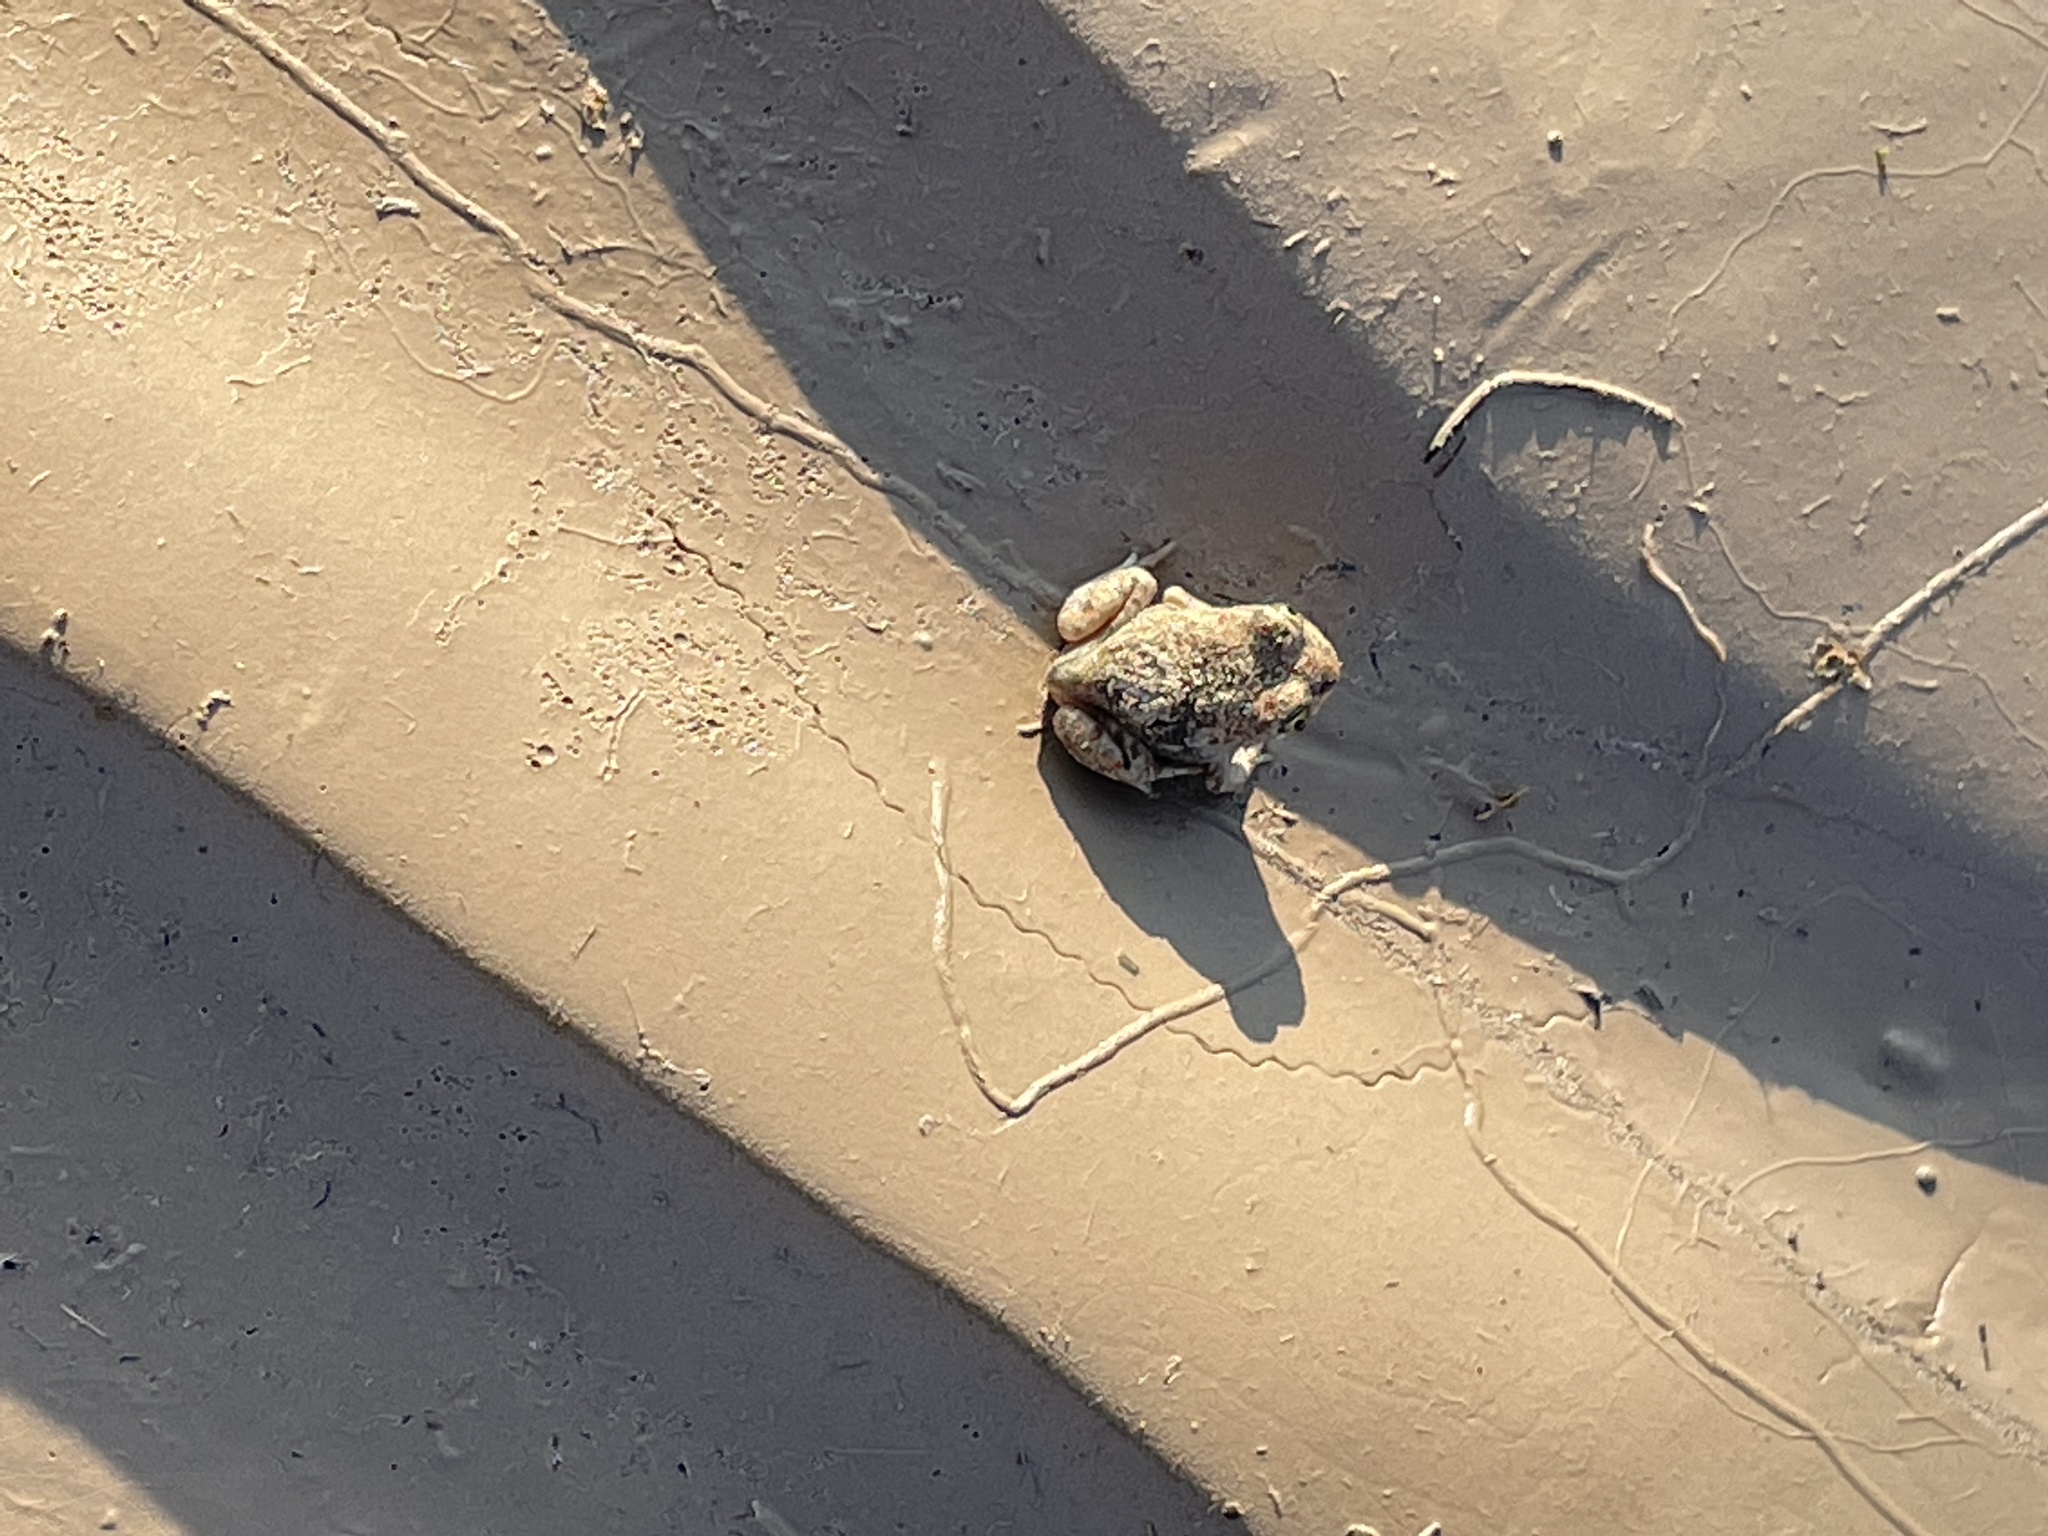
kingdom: Animalia
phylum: Chordata
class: Amphibia
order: Anura
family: Scaphiopodidae
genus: Spea
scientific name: Spea multiplicata
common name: Mexican spadefoot
